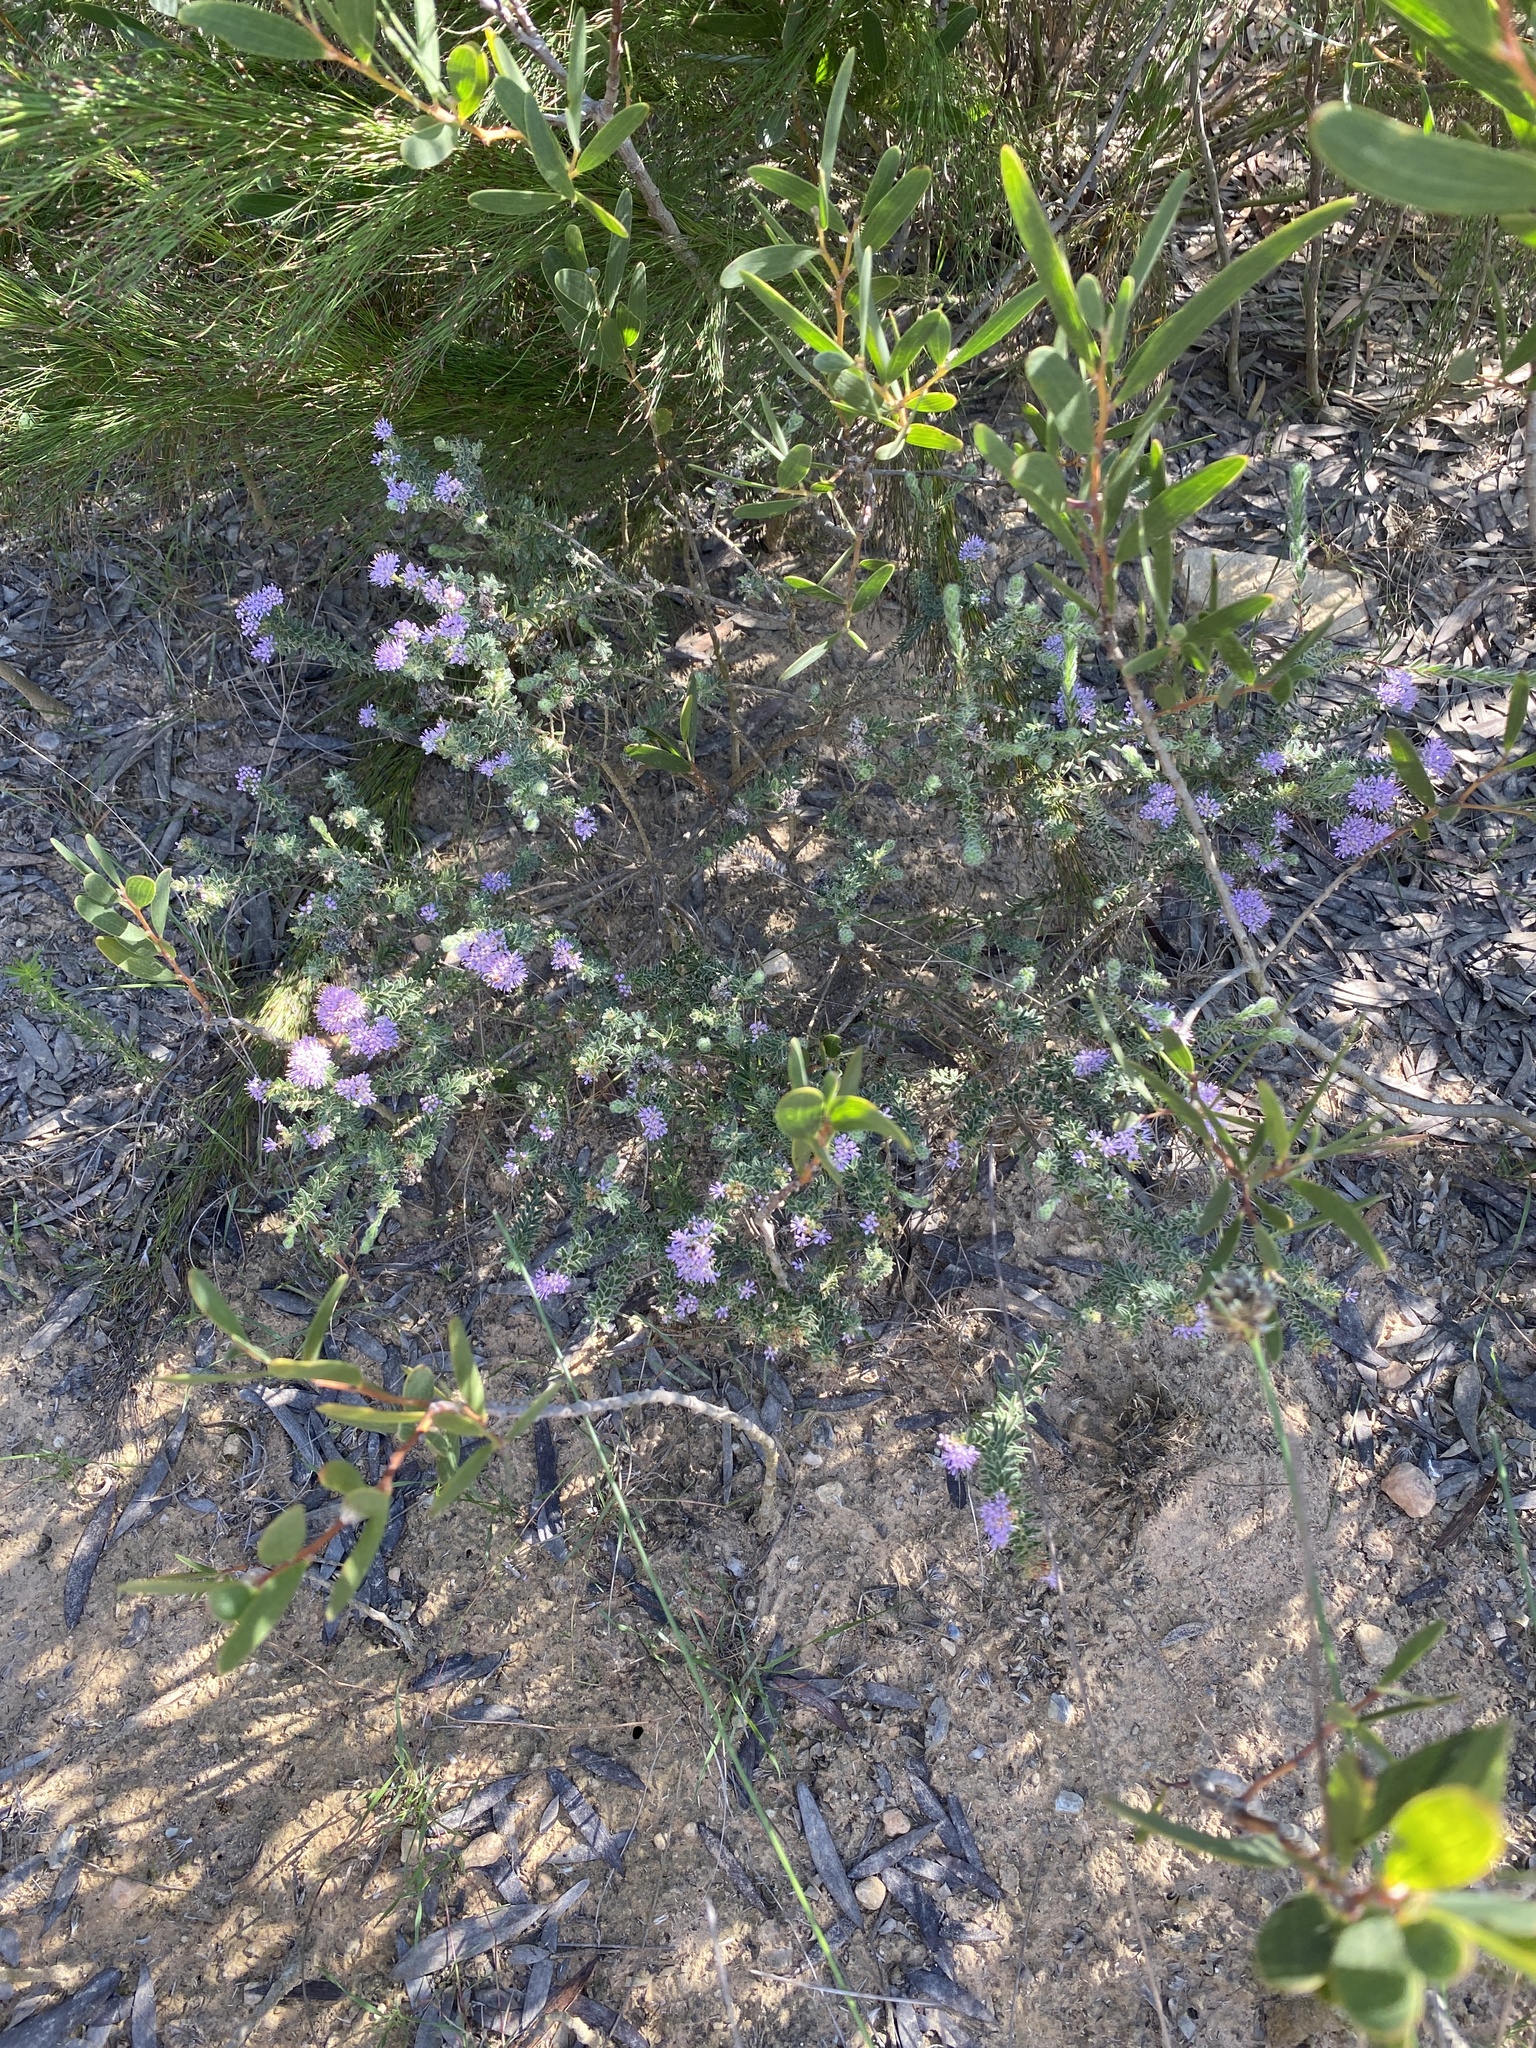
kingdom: Plantae
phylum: Tracheophyta
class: Magnoliopsida
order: Sapindales
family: Rutaceae
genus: Agathosma
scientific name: Agathosma serpyllacea
